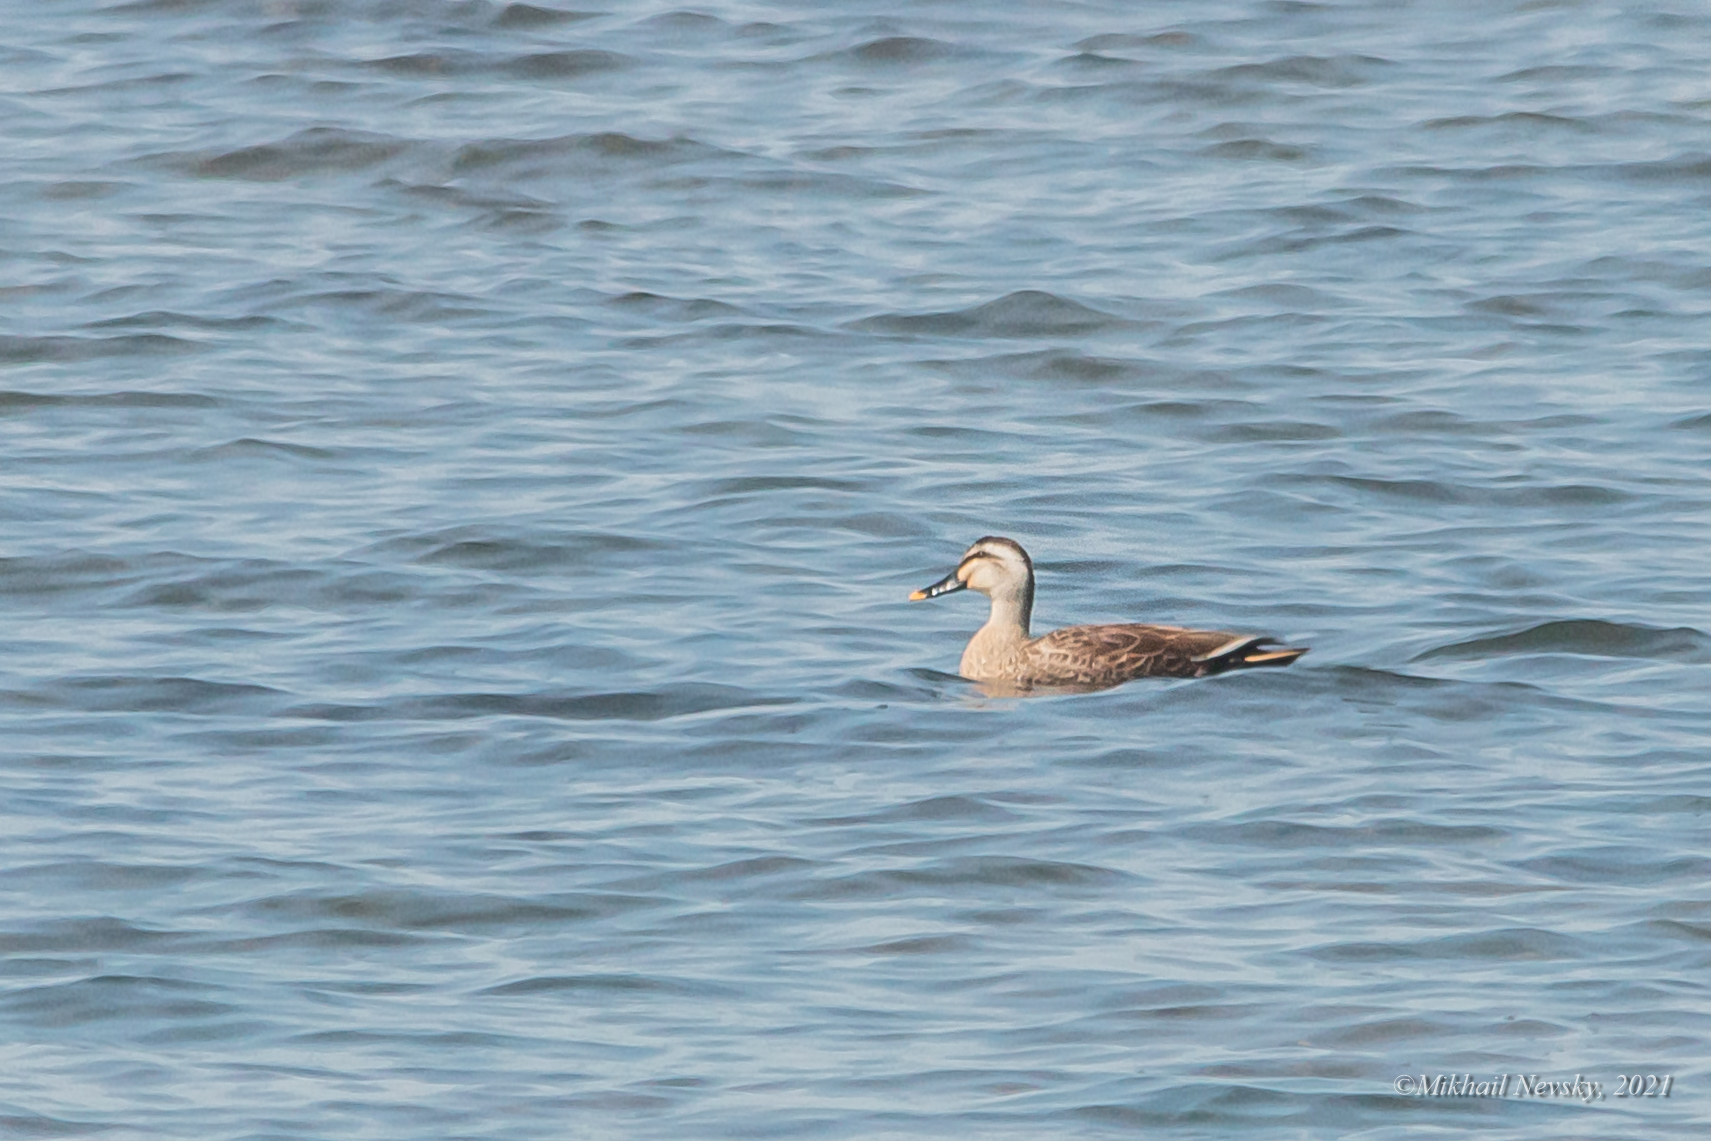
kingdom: Animalia
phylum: Chordata
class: Aves
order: Anseriformes
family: Anatidae
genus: Anas
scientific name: Anas zonorhyncha
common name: Eastern spot-billed duck
